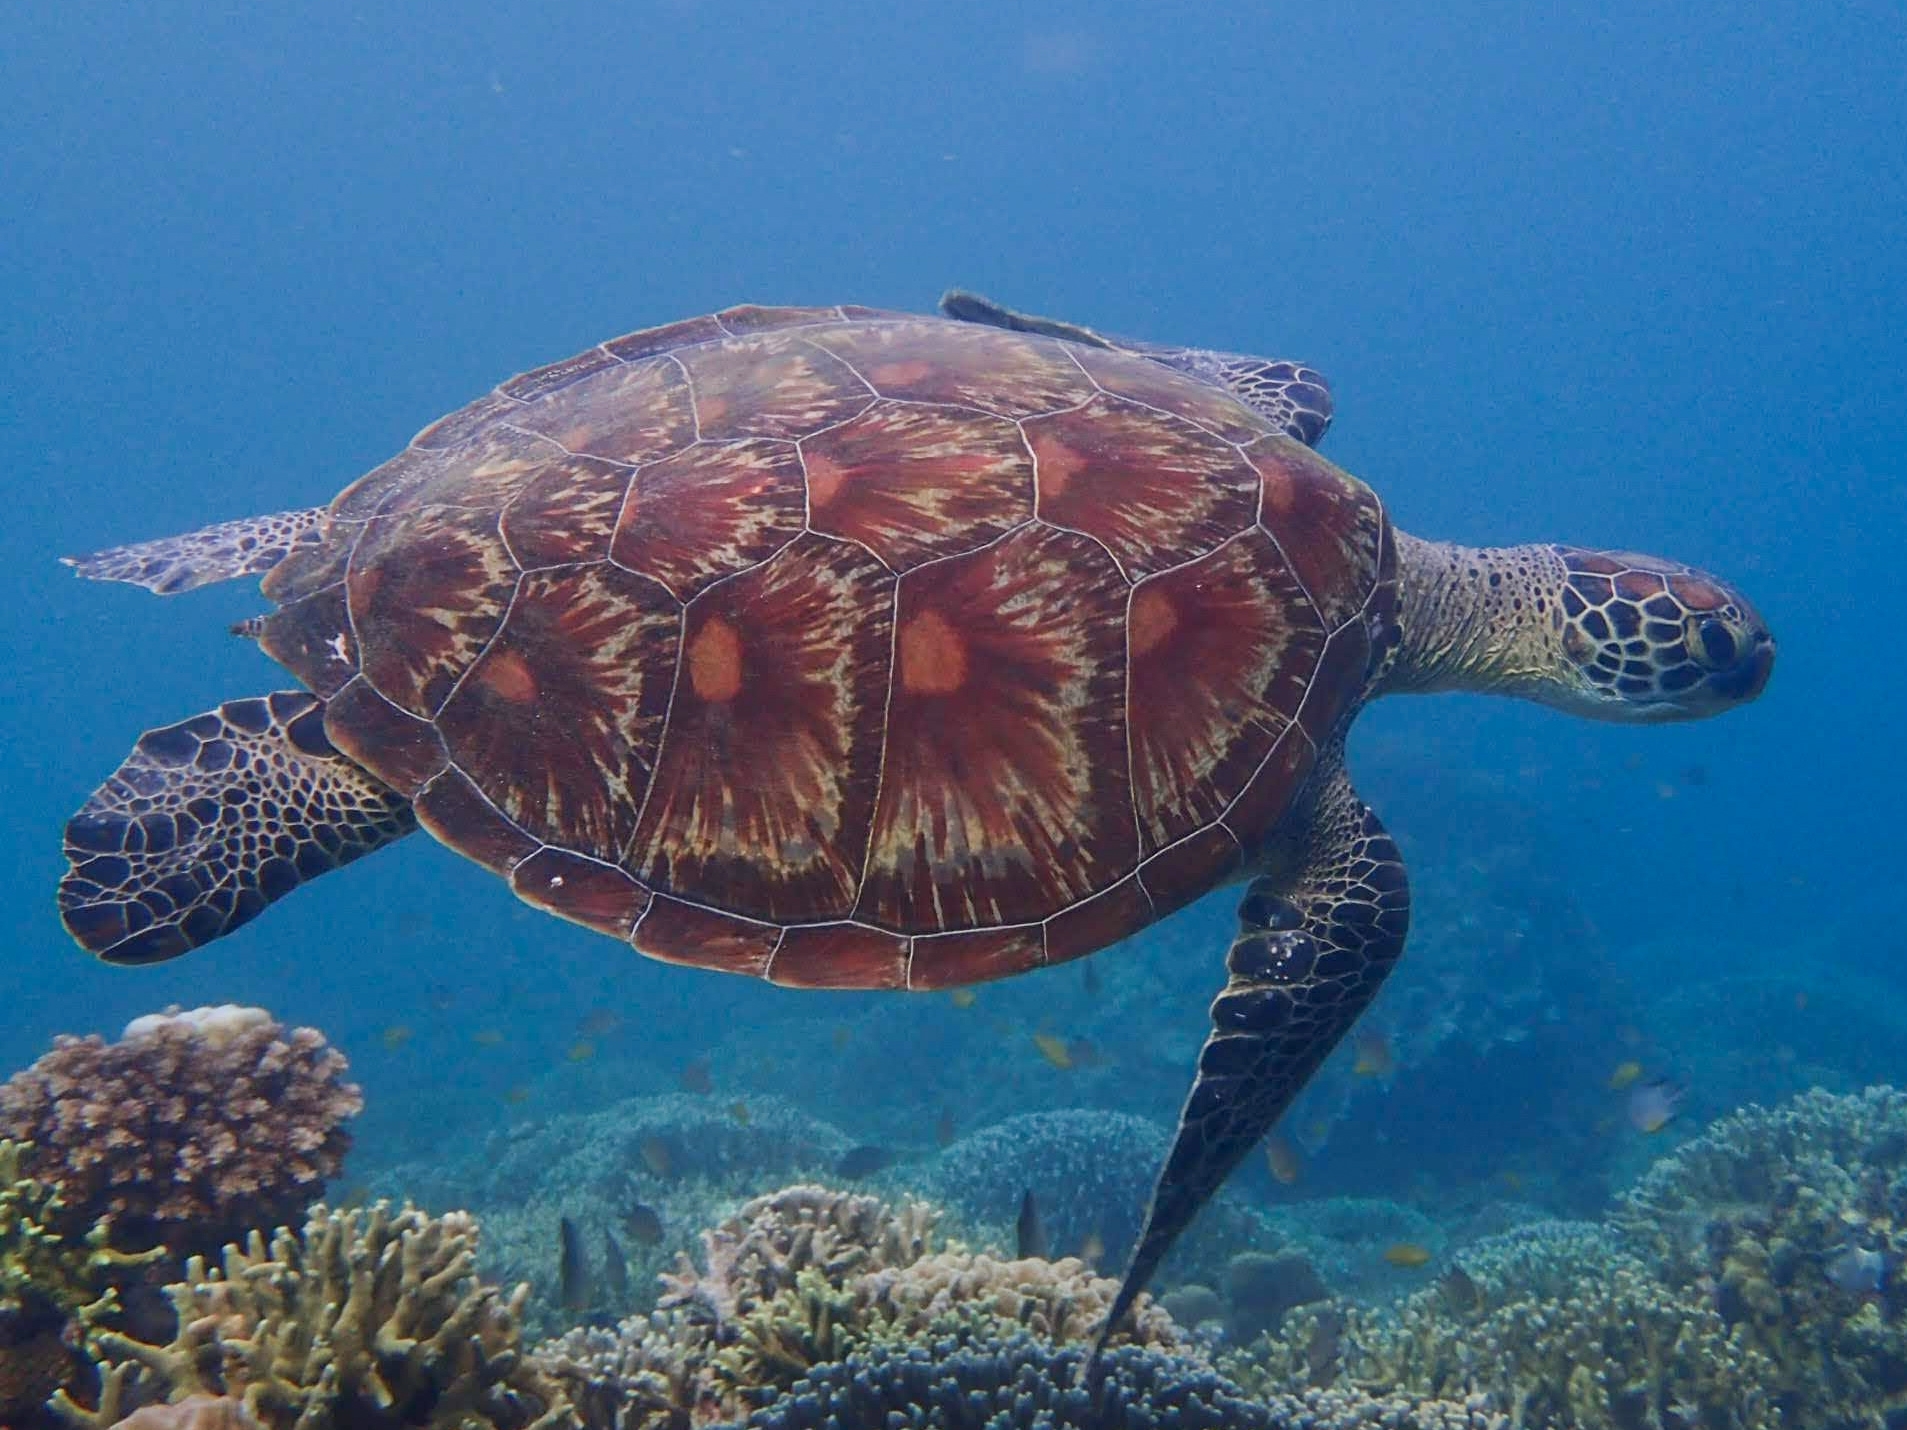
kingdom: Animalia
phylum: Chordata
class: Testudines
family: Cheloniidae
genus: Chelonia
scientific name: Chelonia mydas
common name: Green turtle
